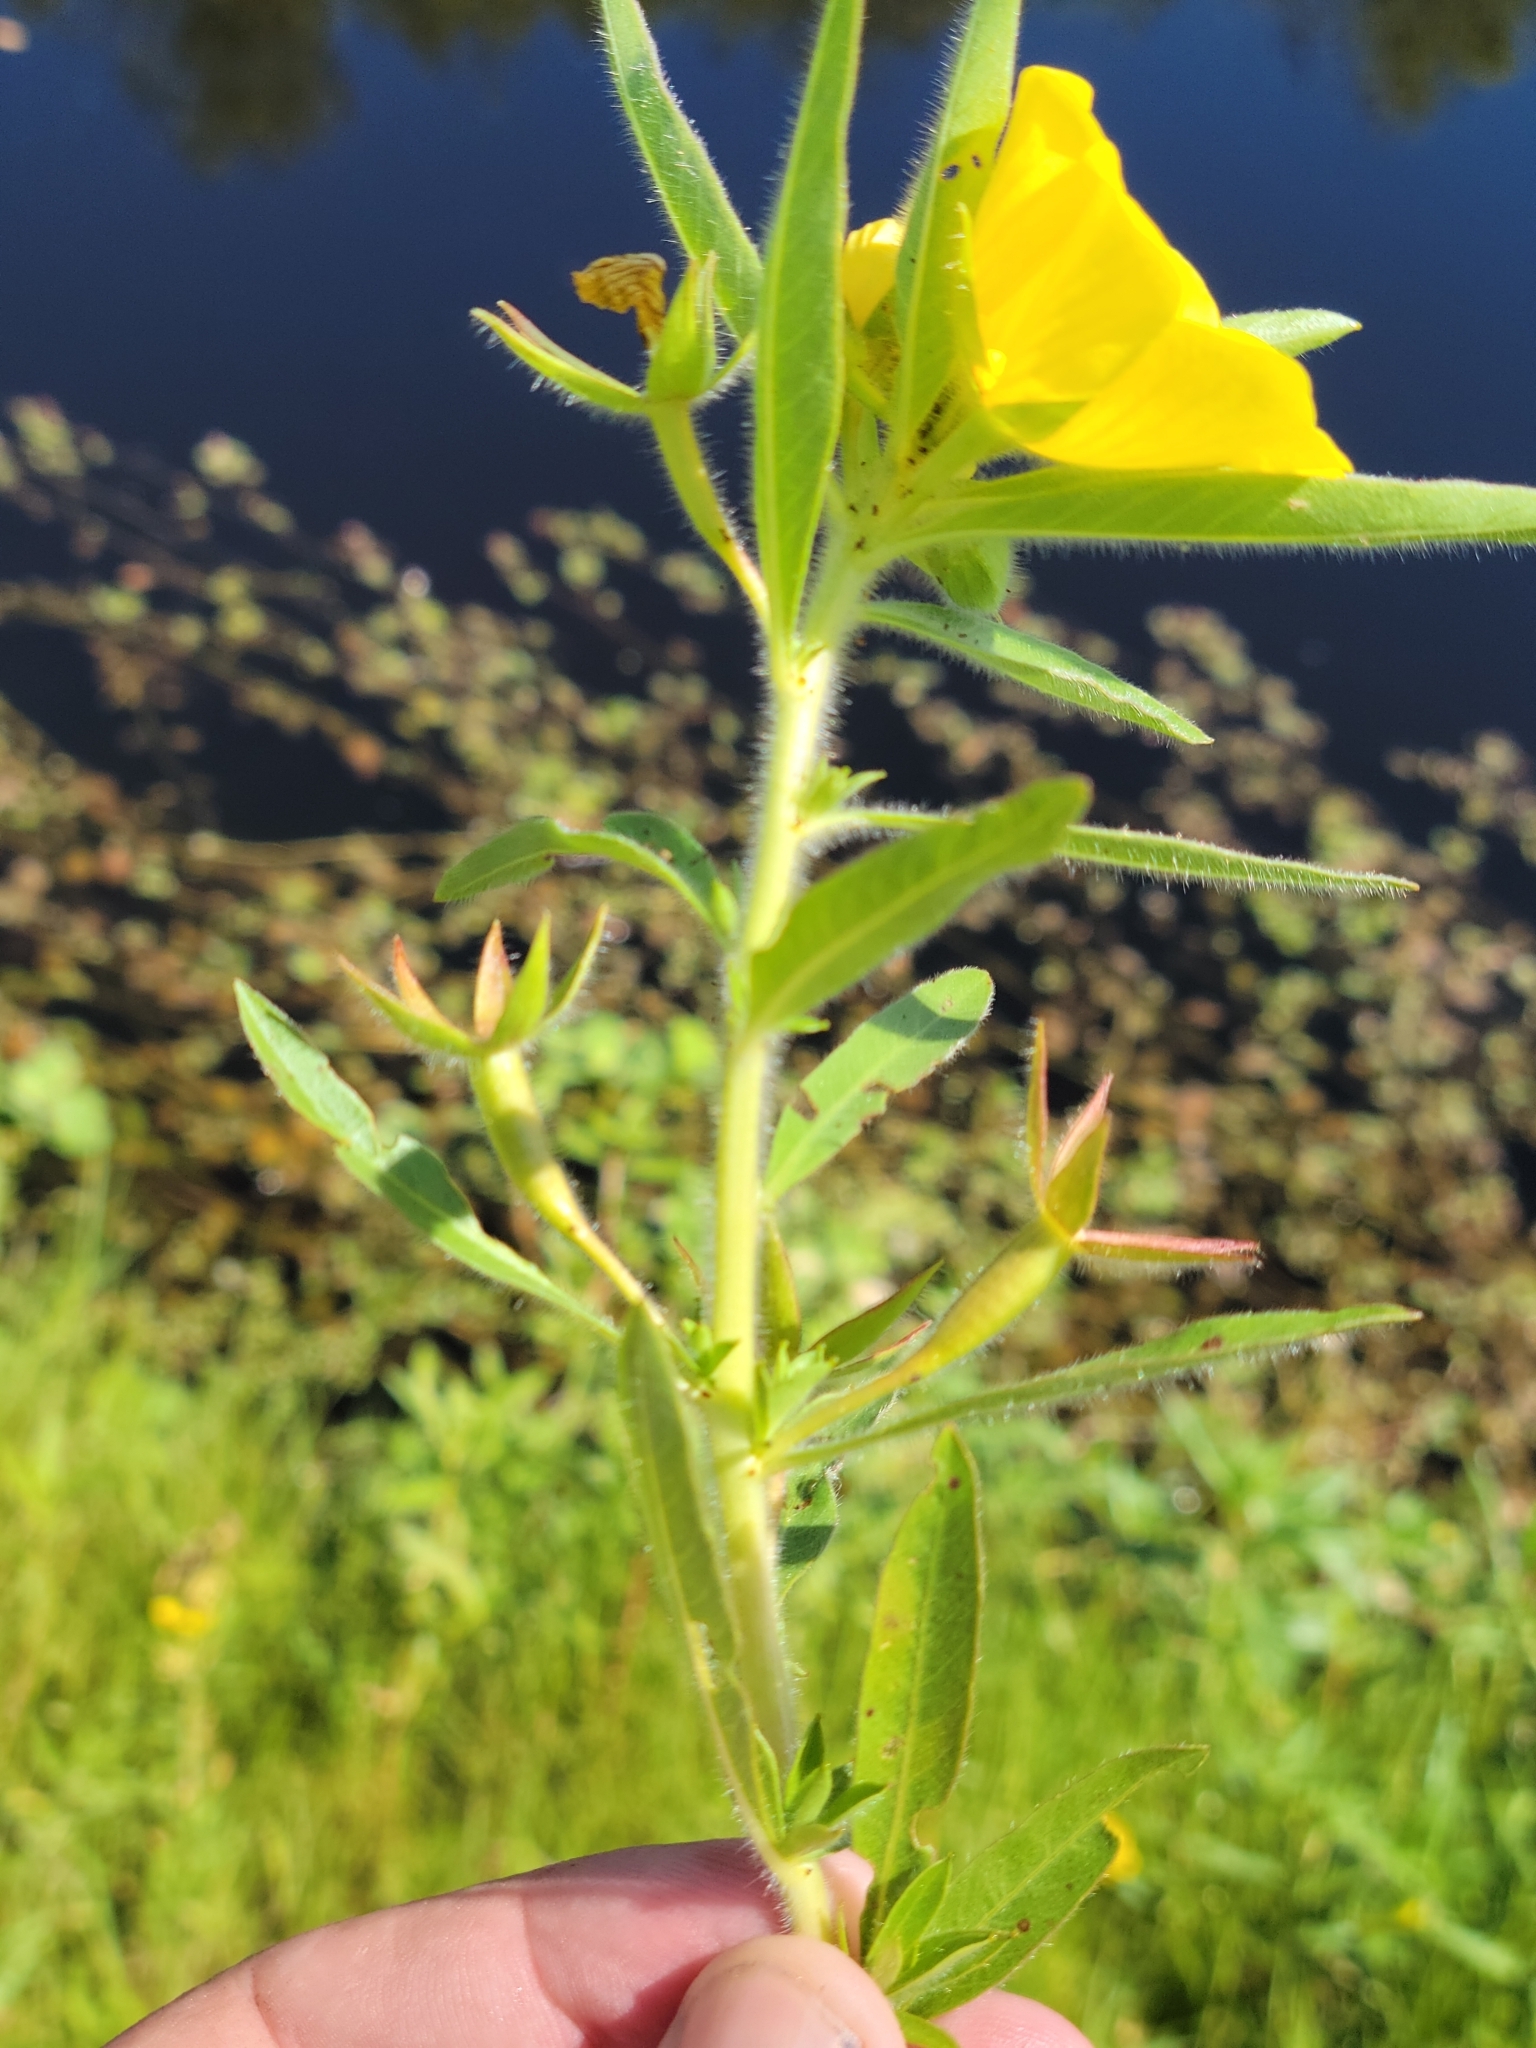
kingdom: Plantae
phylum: Tracheophyta
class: Magnoliopsida
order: Myrtales
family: Onagraceae
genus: Ludwigia
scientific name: Ludwigia grandiflora
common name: Water primrose
